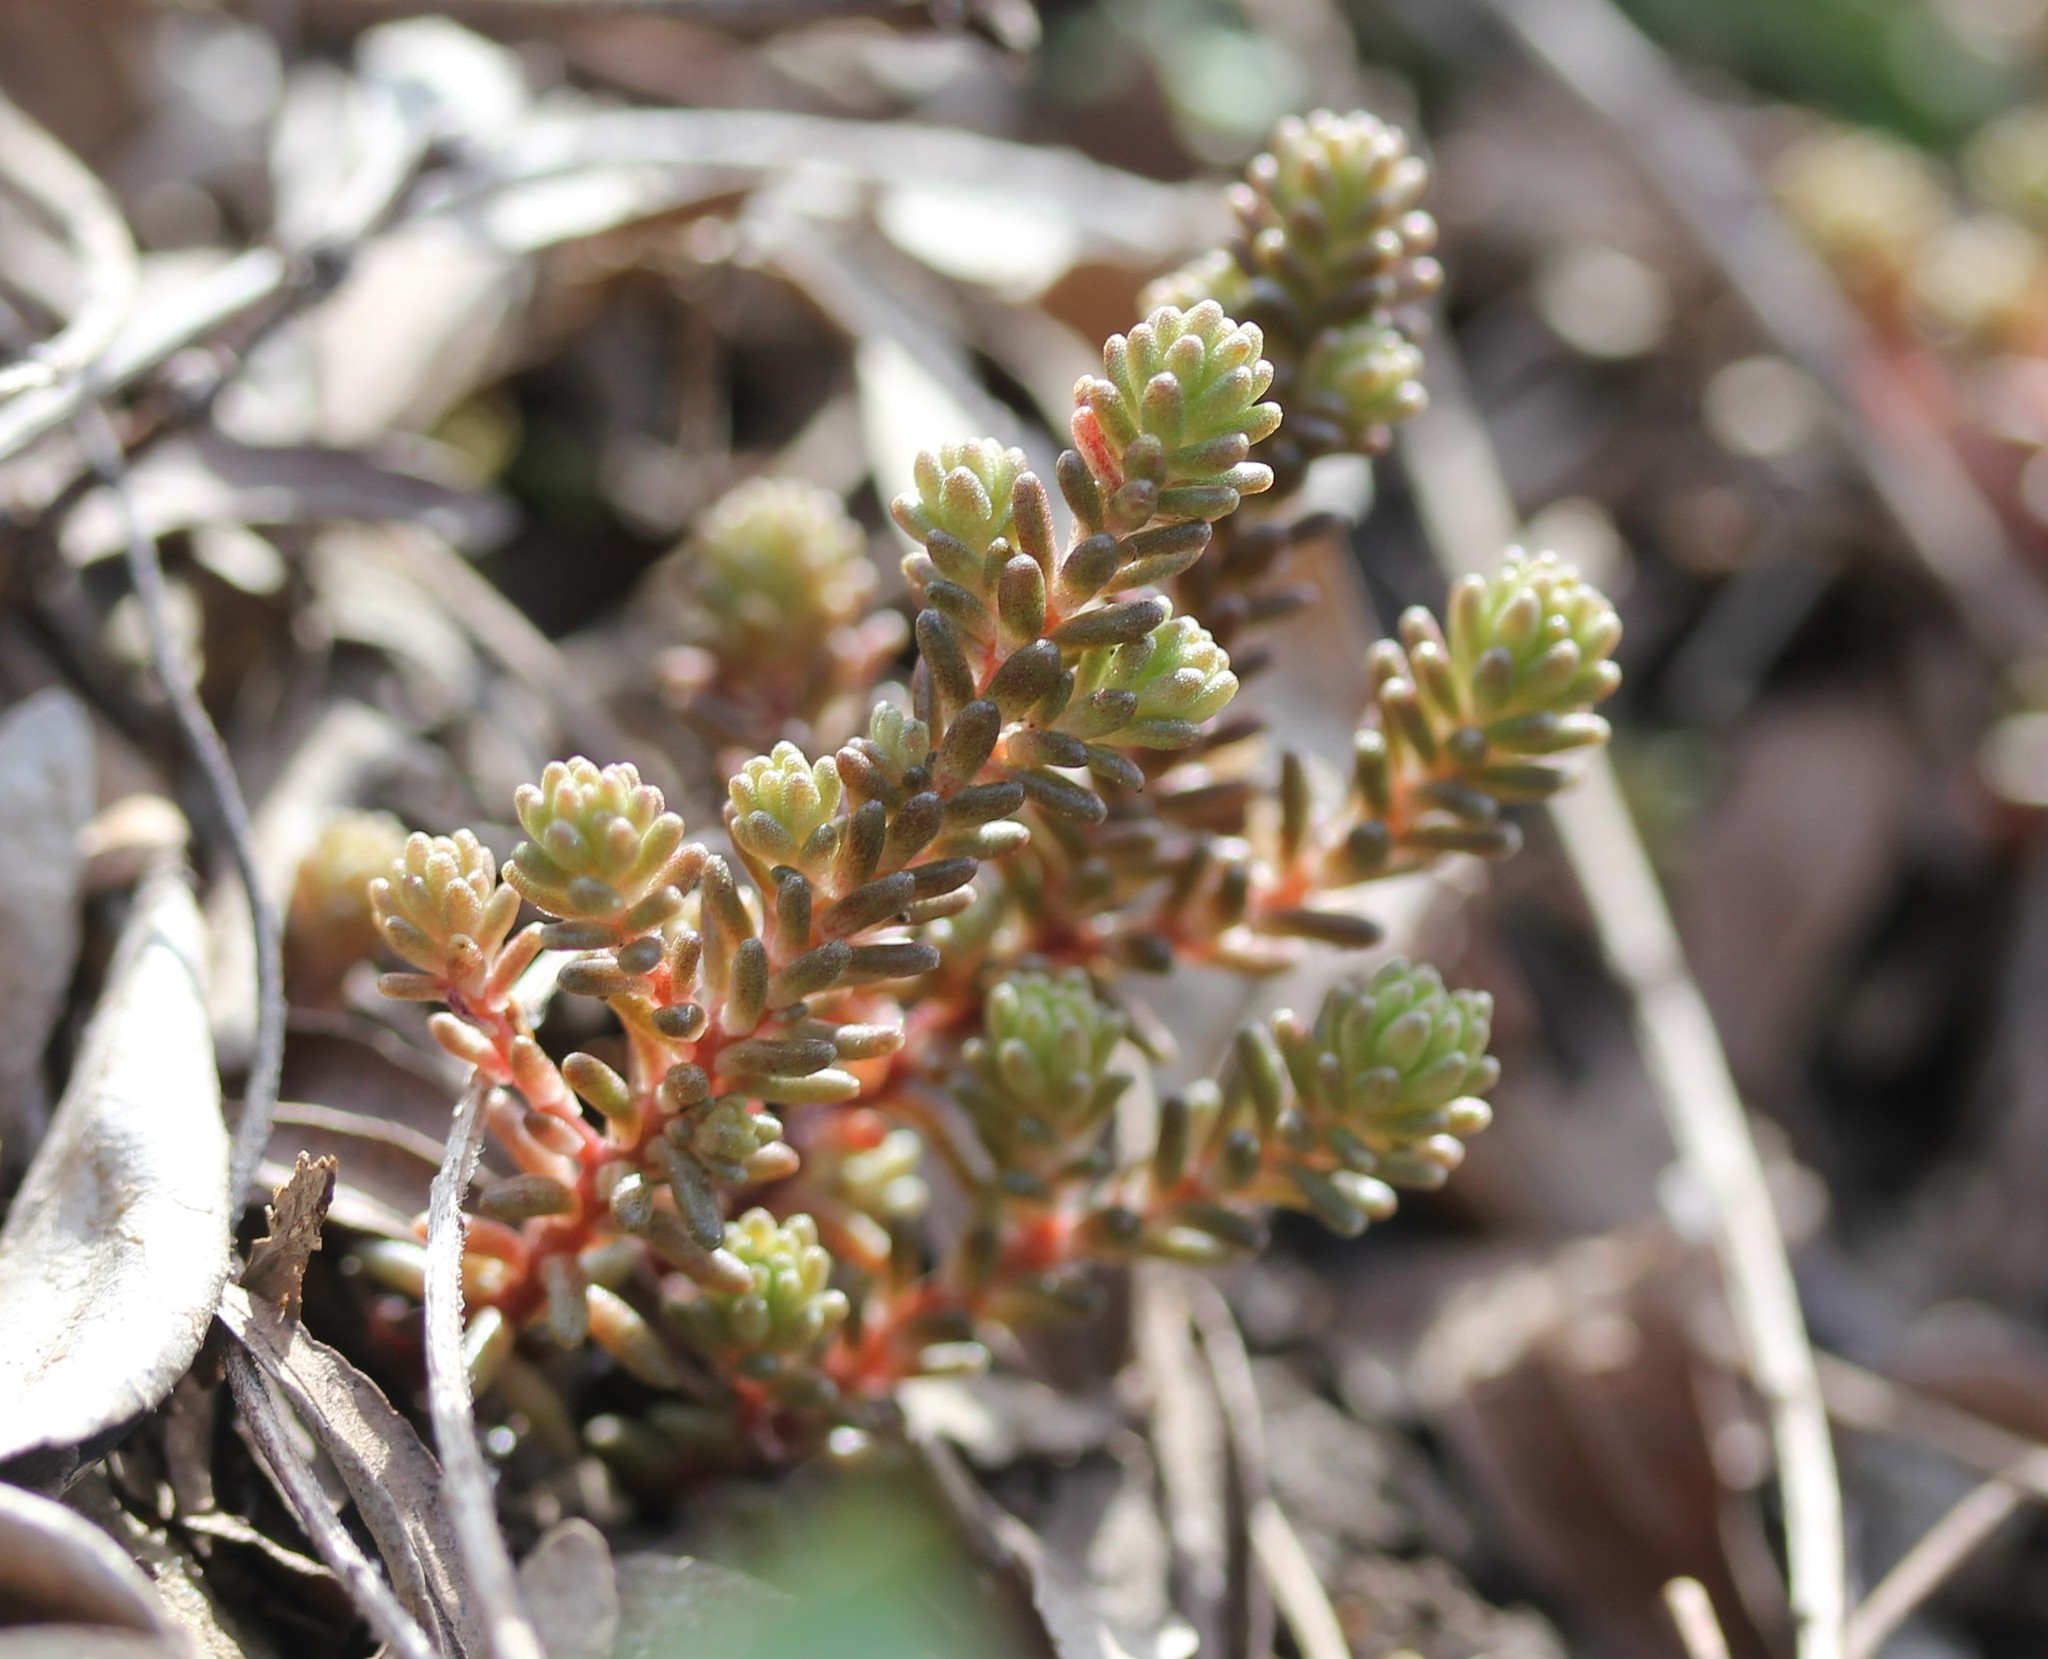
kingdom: Plantae
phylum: Tracheophyta
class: Magnoliopsida
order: Saxifragales
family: Crassulaceae
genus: Sedum
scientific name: Sedum sexangulare
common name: Tasteless stonecrop
